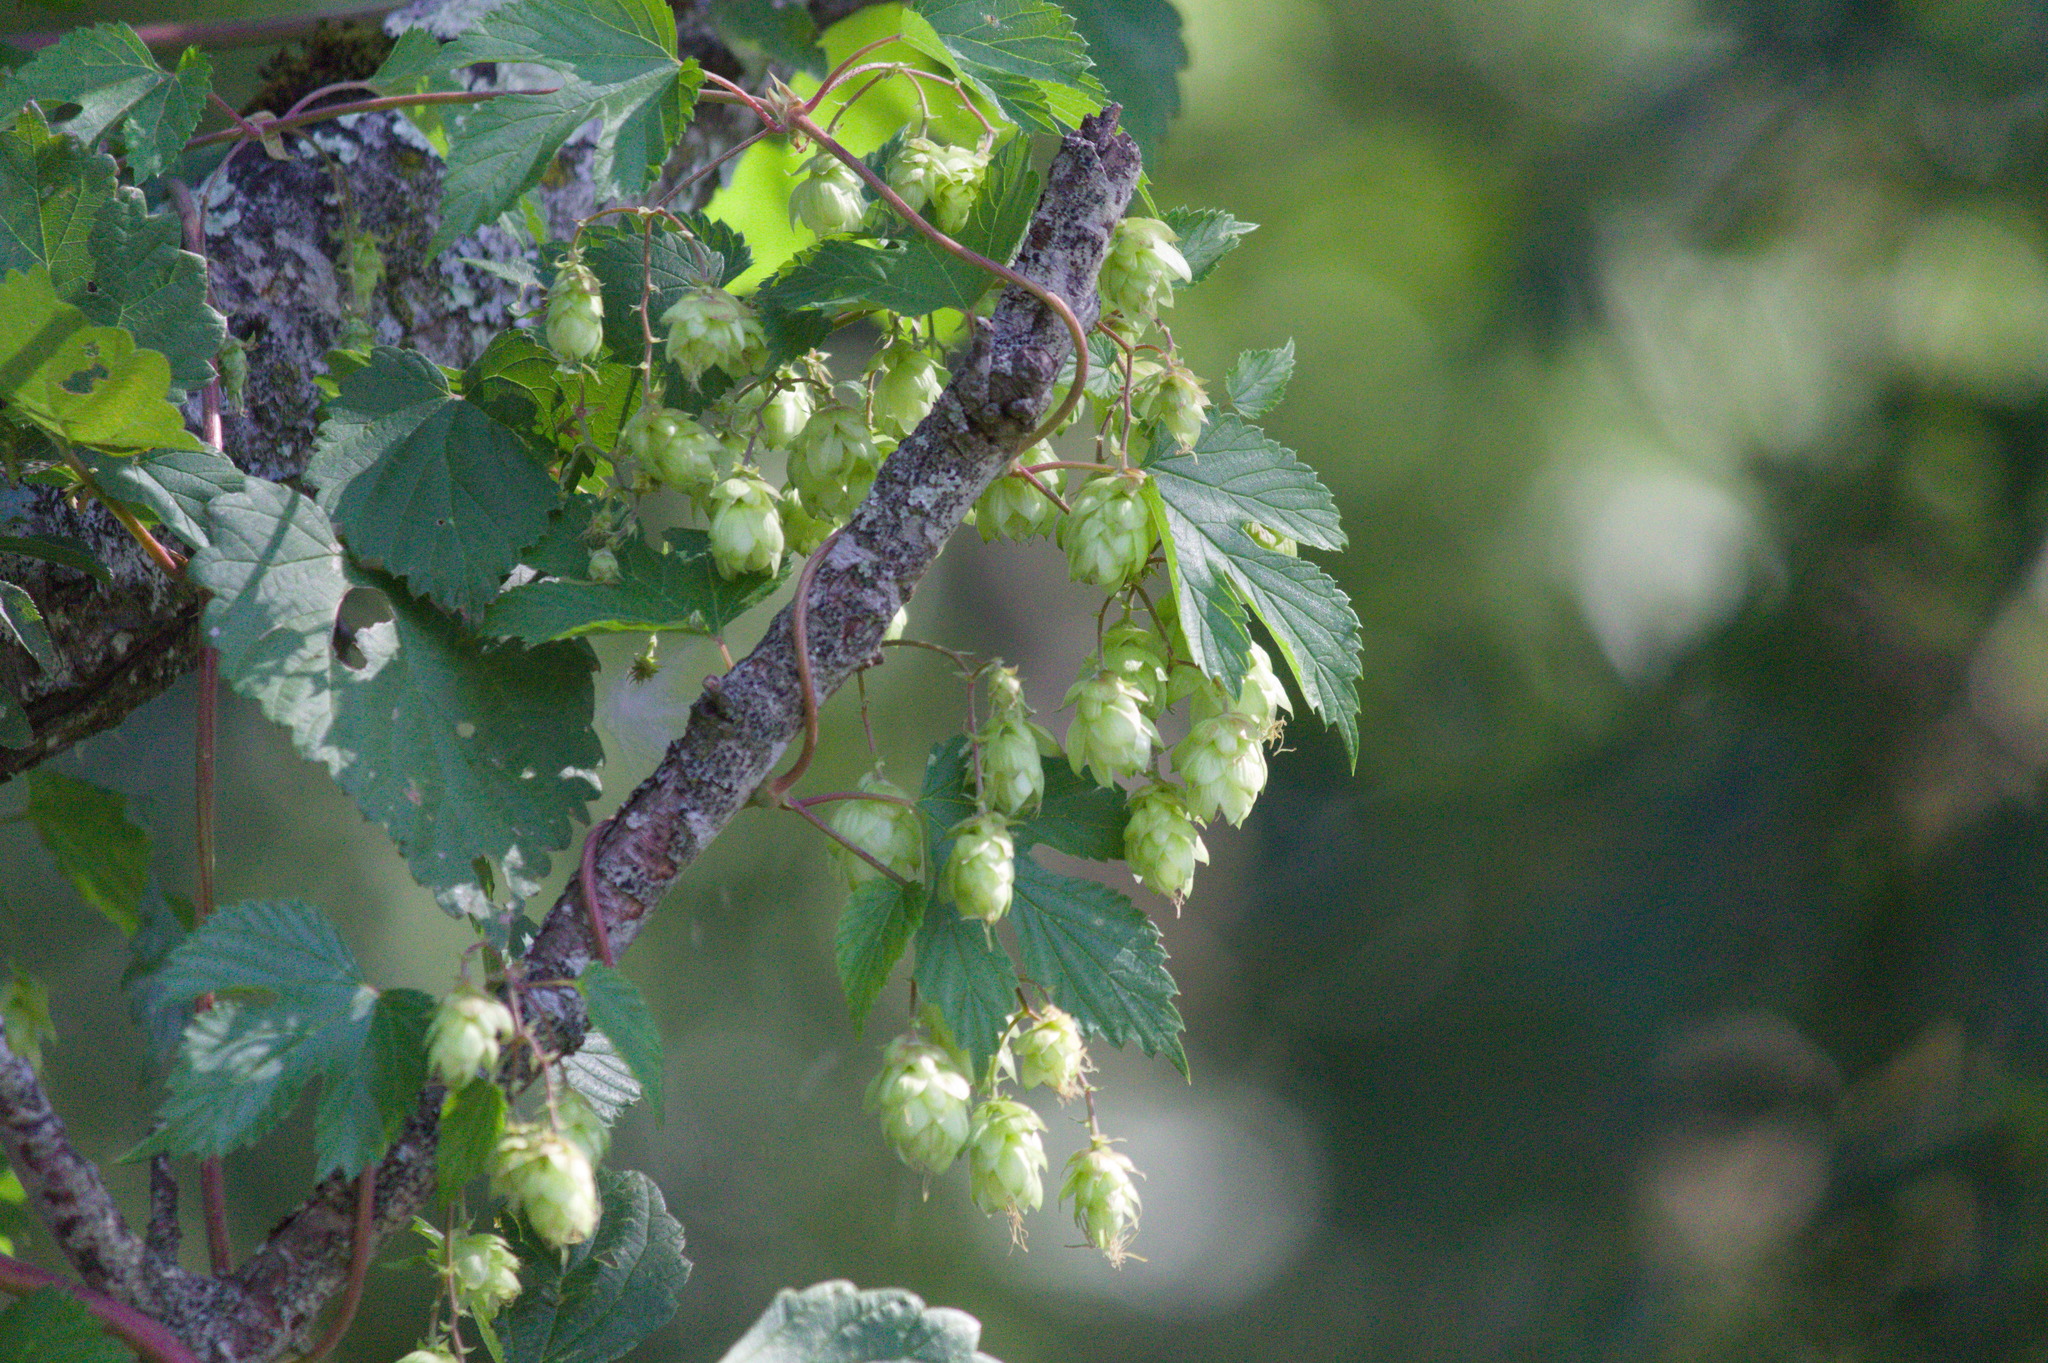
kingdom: Plantae
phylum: Tracheophyta
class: Magnoliopsida
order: Rosales
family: Cannabaceae
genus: Humulus
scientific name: Humulus lupulus
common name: Hop
